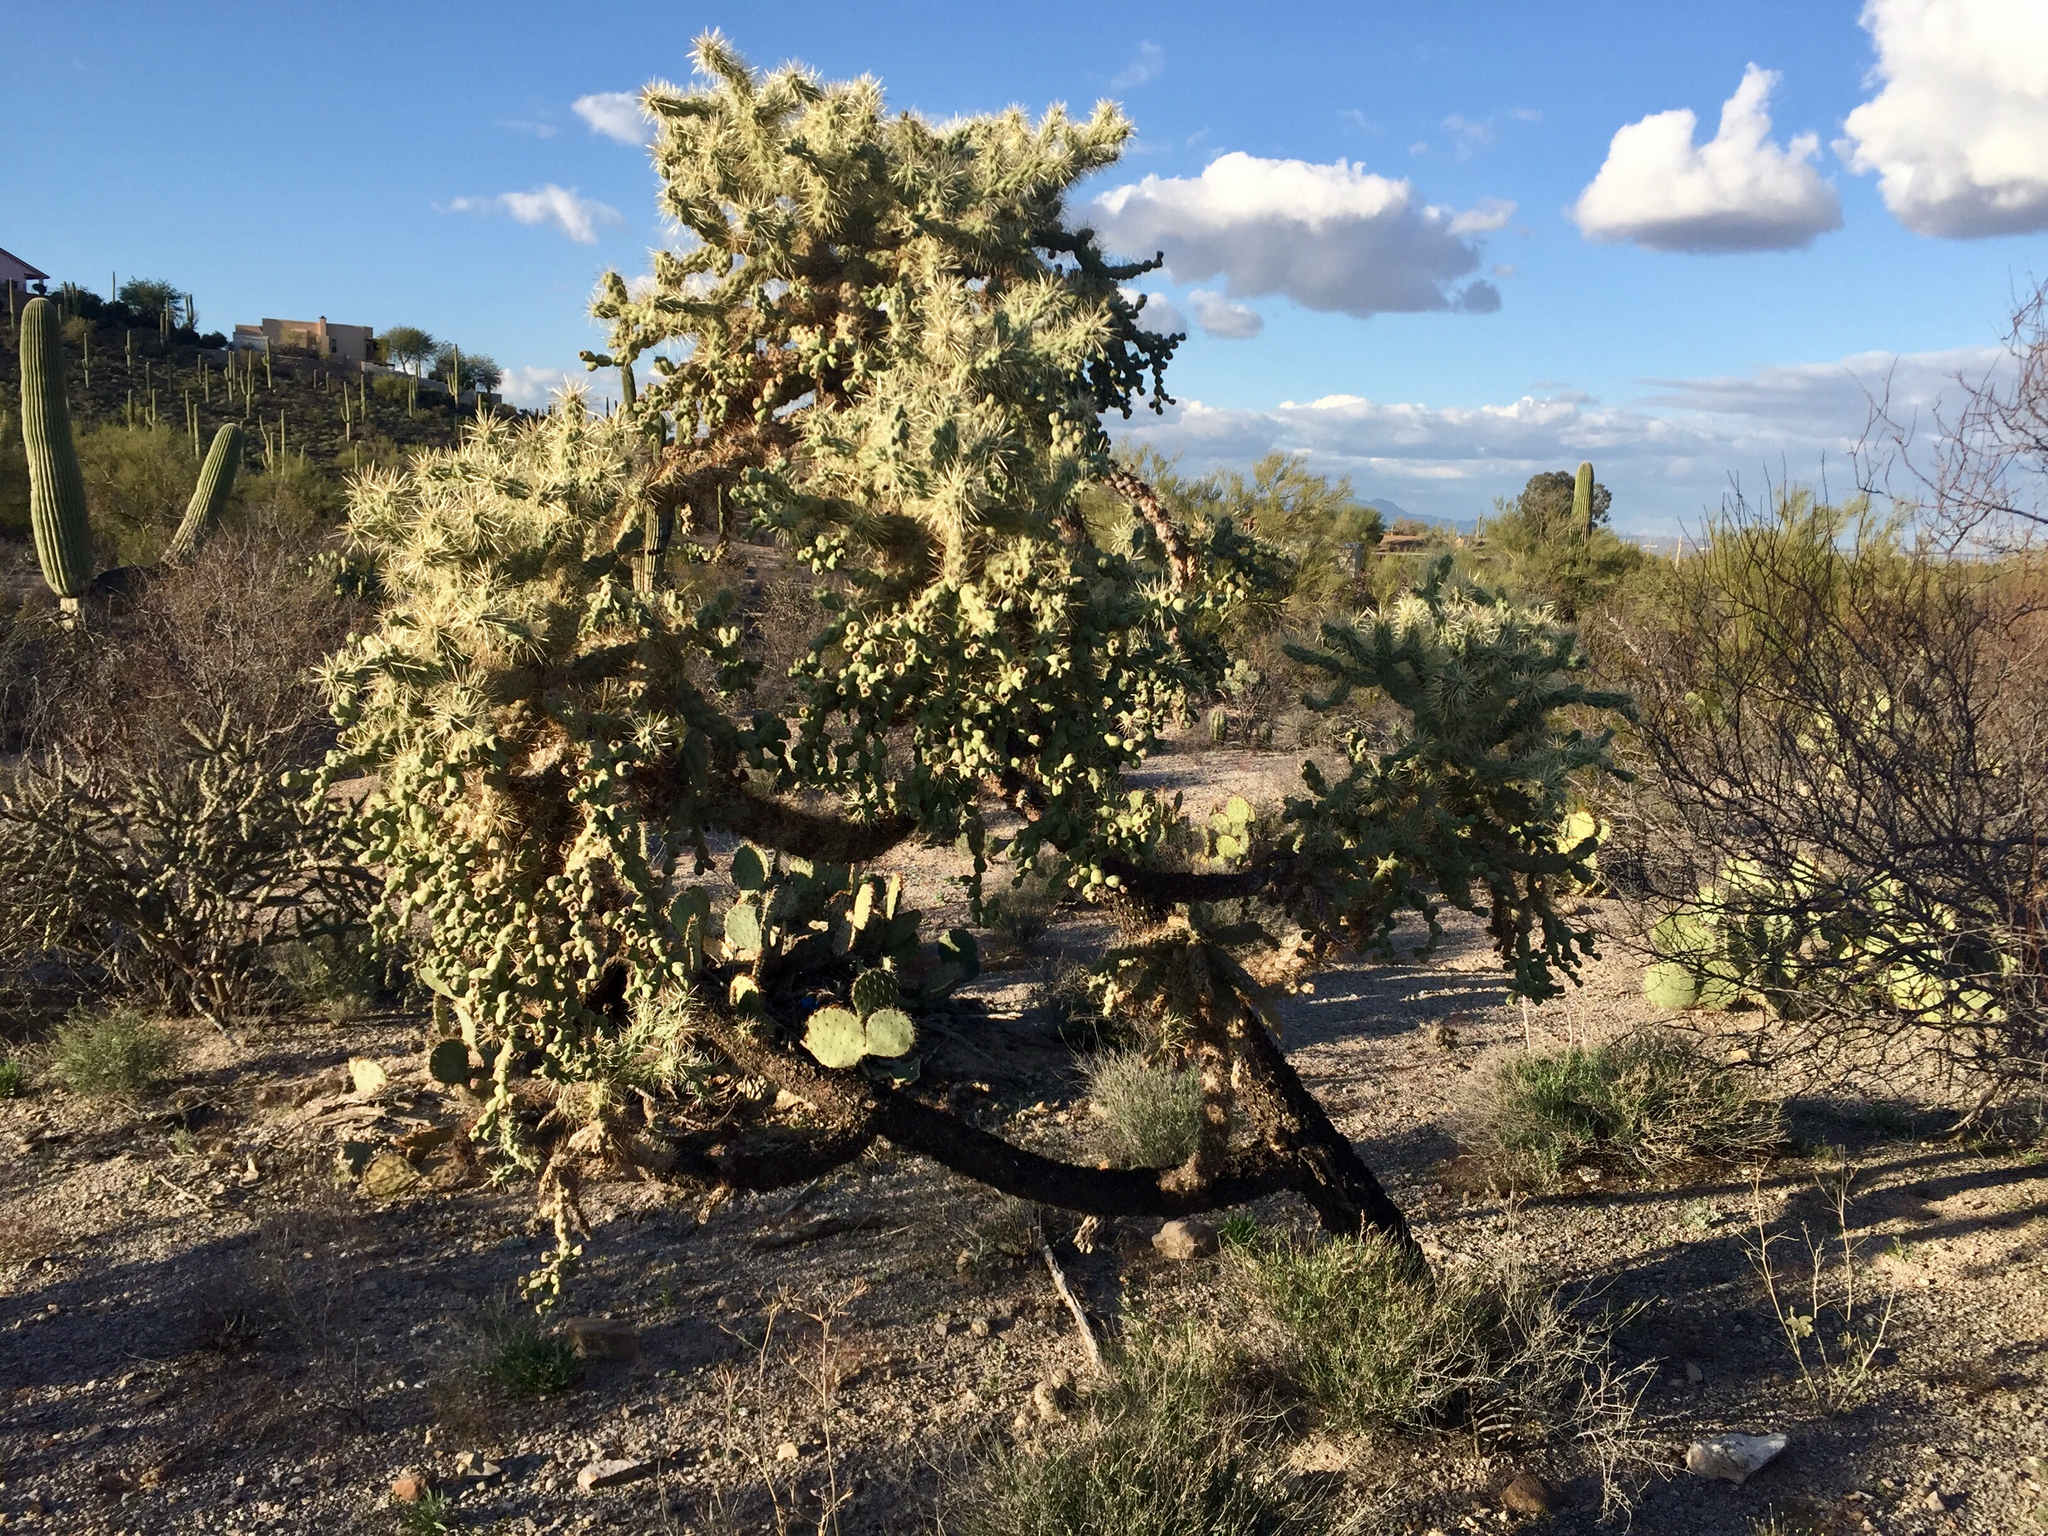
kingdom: Plantae
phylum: Tracheophyta
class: Magnoliopsida
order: Caryophyllales
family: Cactaceae
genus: Cylindropuntia
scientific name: Cylindropuntia fulgida
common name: Jumping cholla
